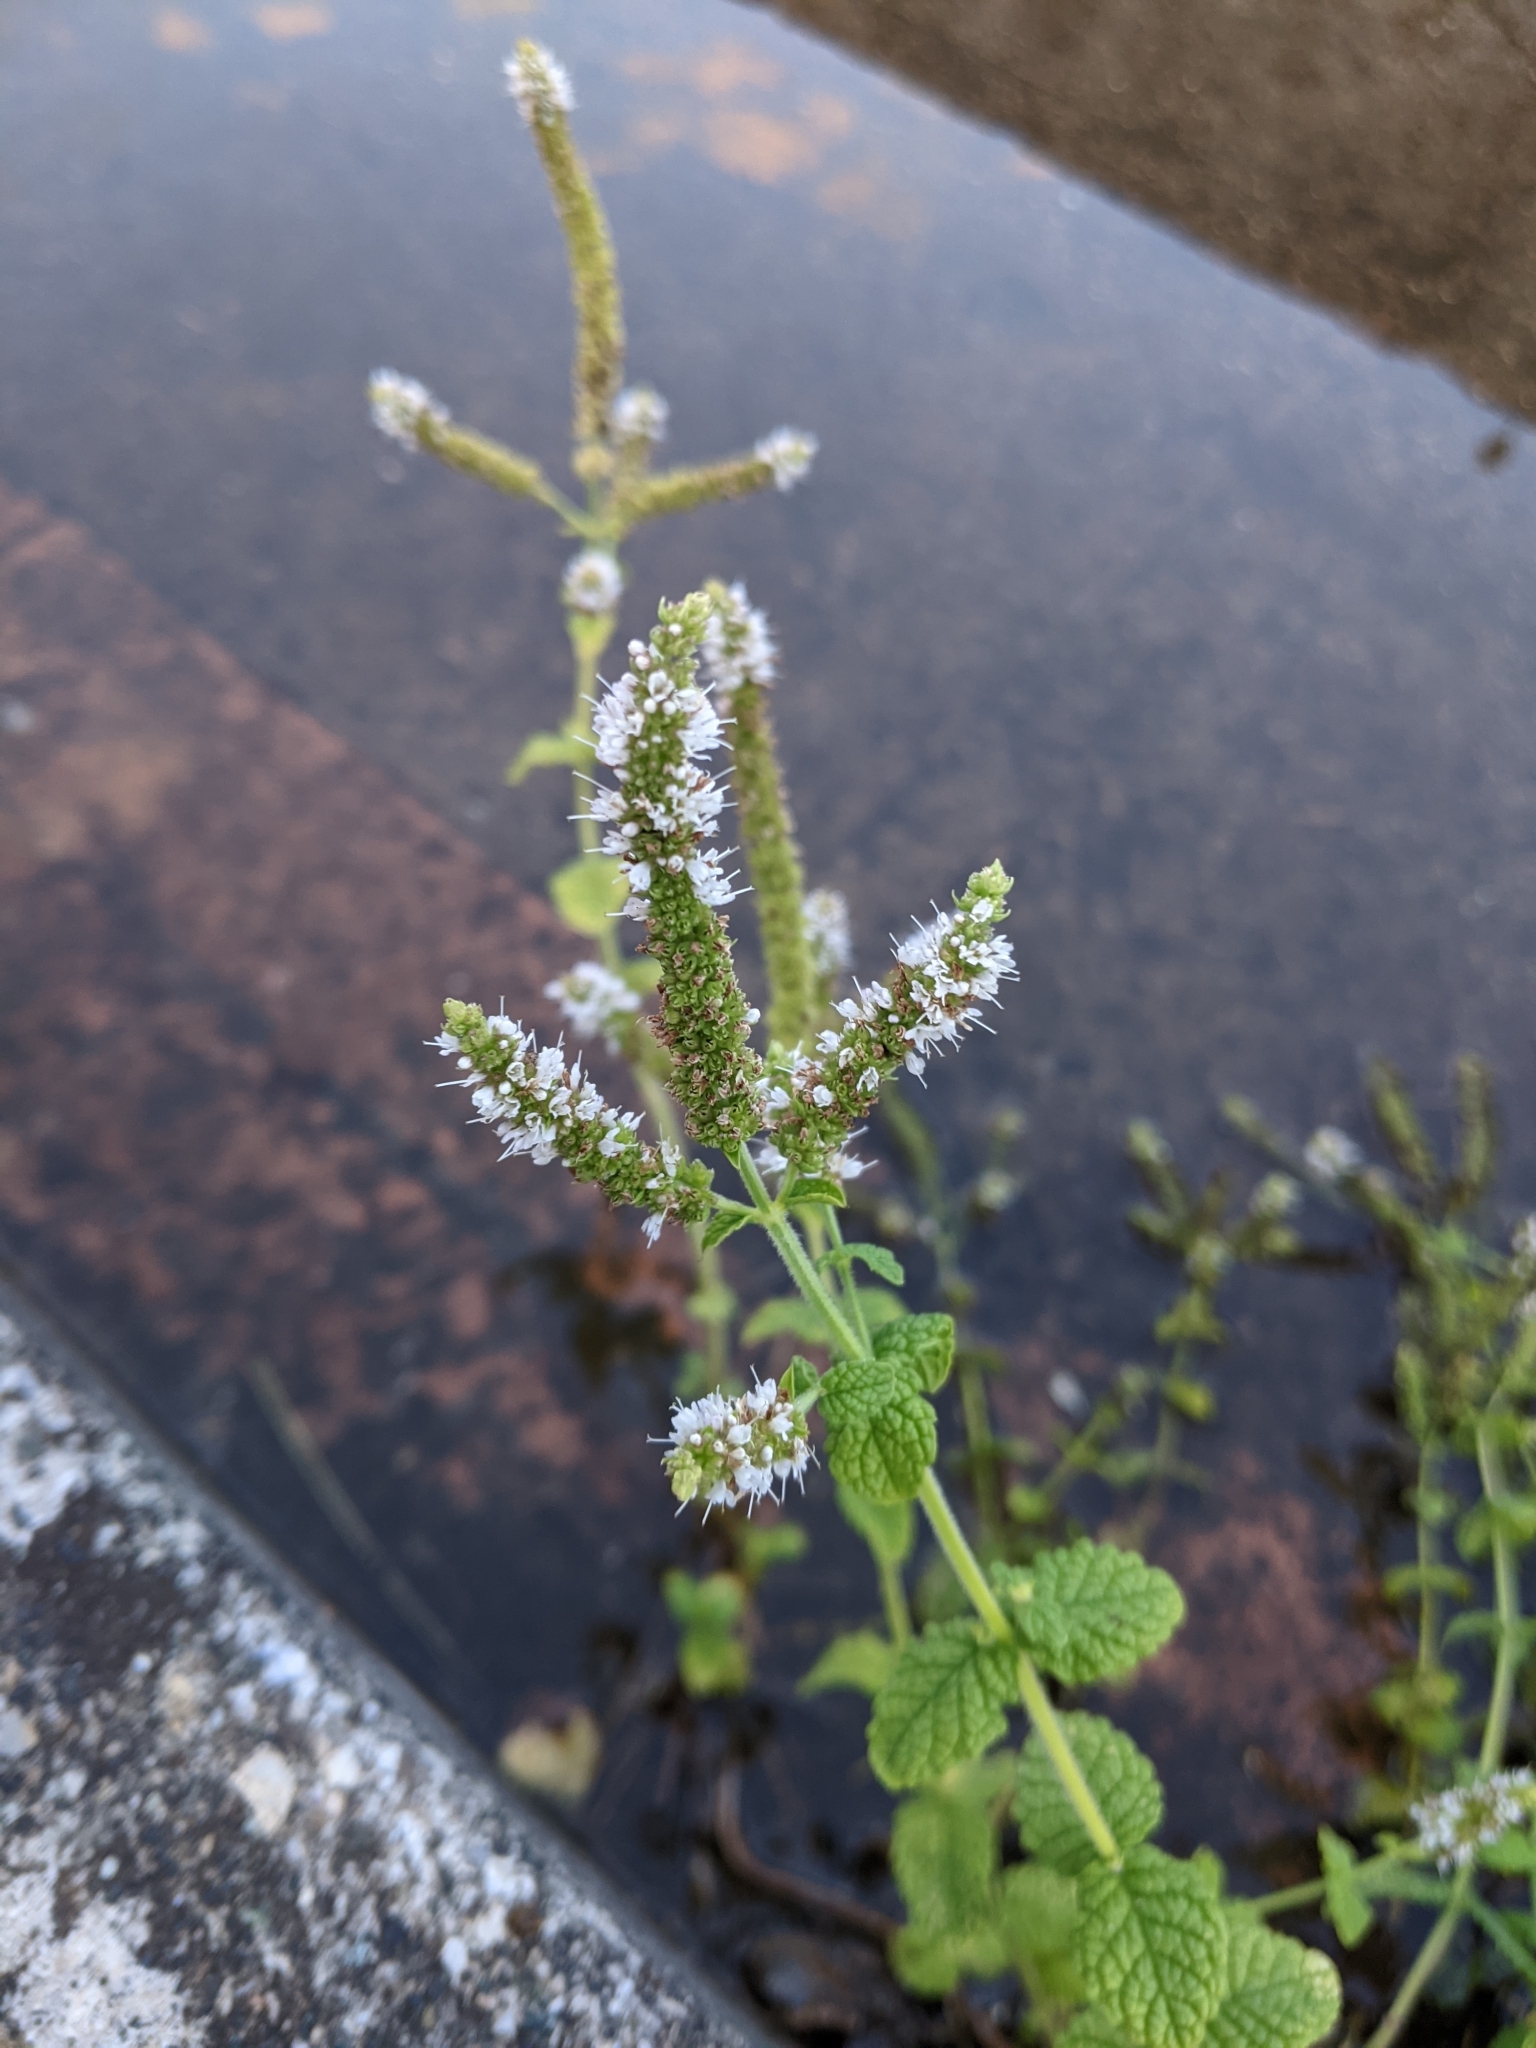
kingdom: Plantae
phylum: Tracheophyta
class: Magnoliopsida
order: Lamiales
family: Lamiaceae
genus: Mentha
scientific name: Mentha suaveolens
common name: Apple mint
